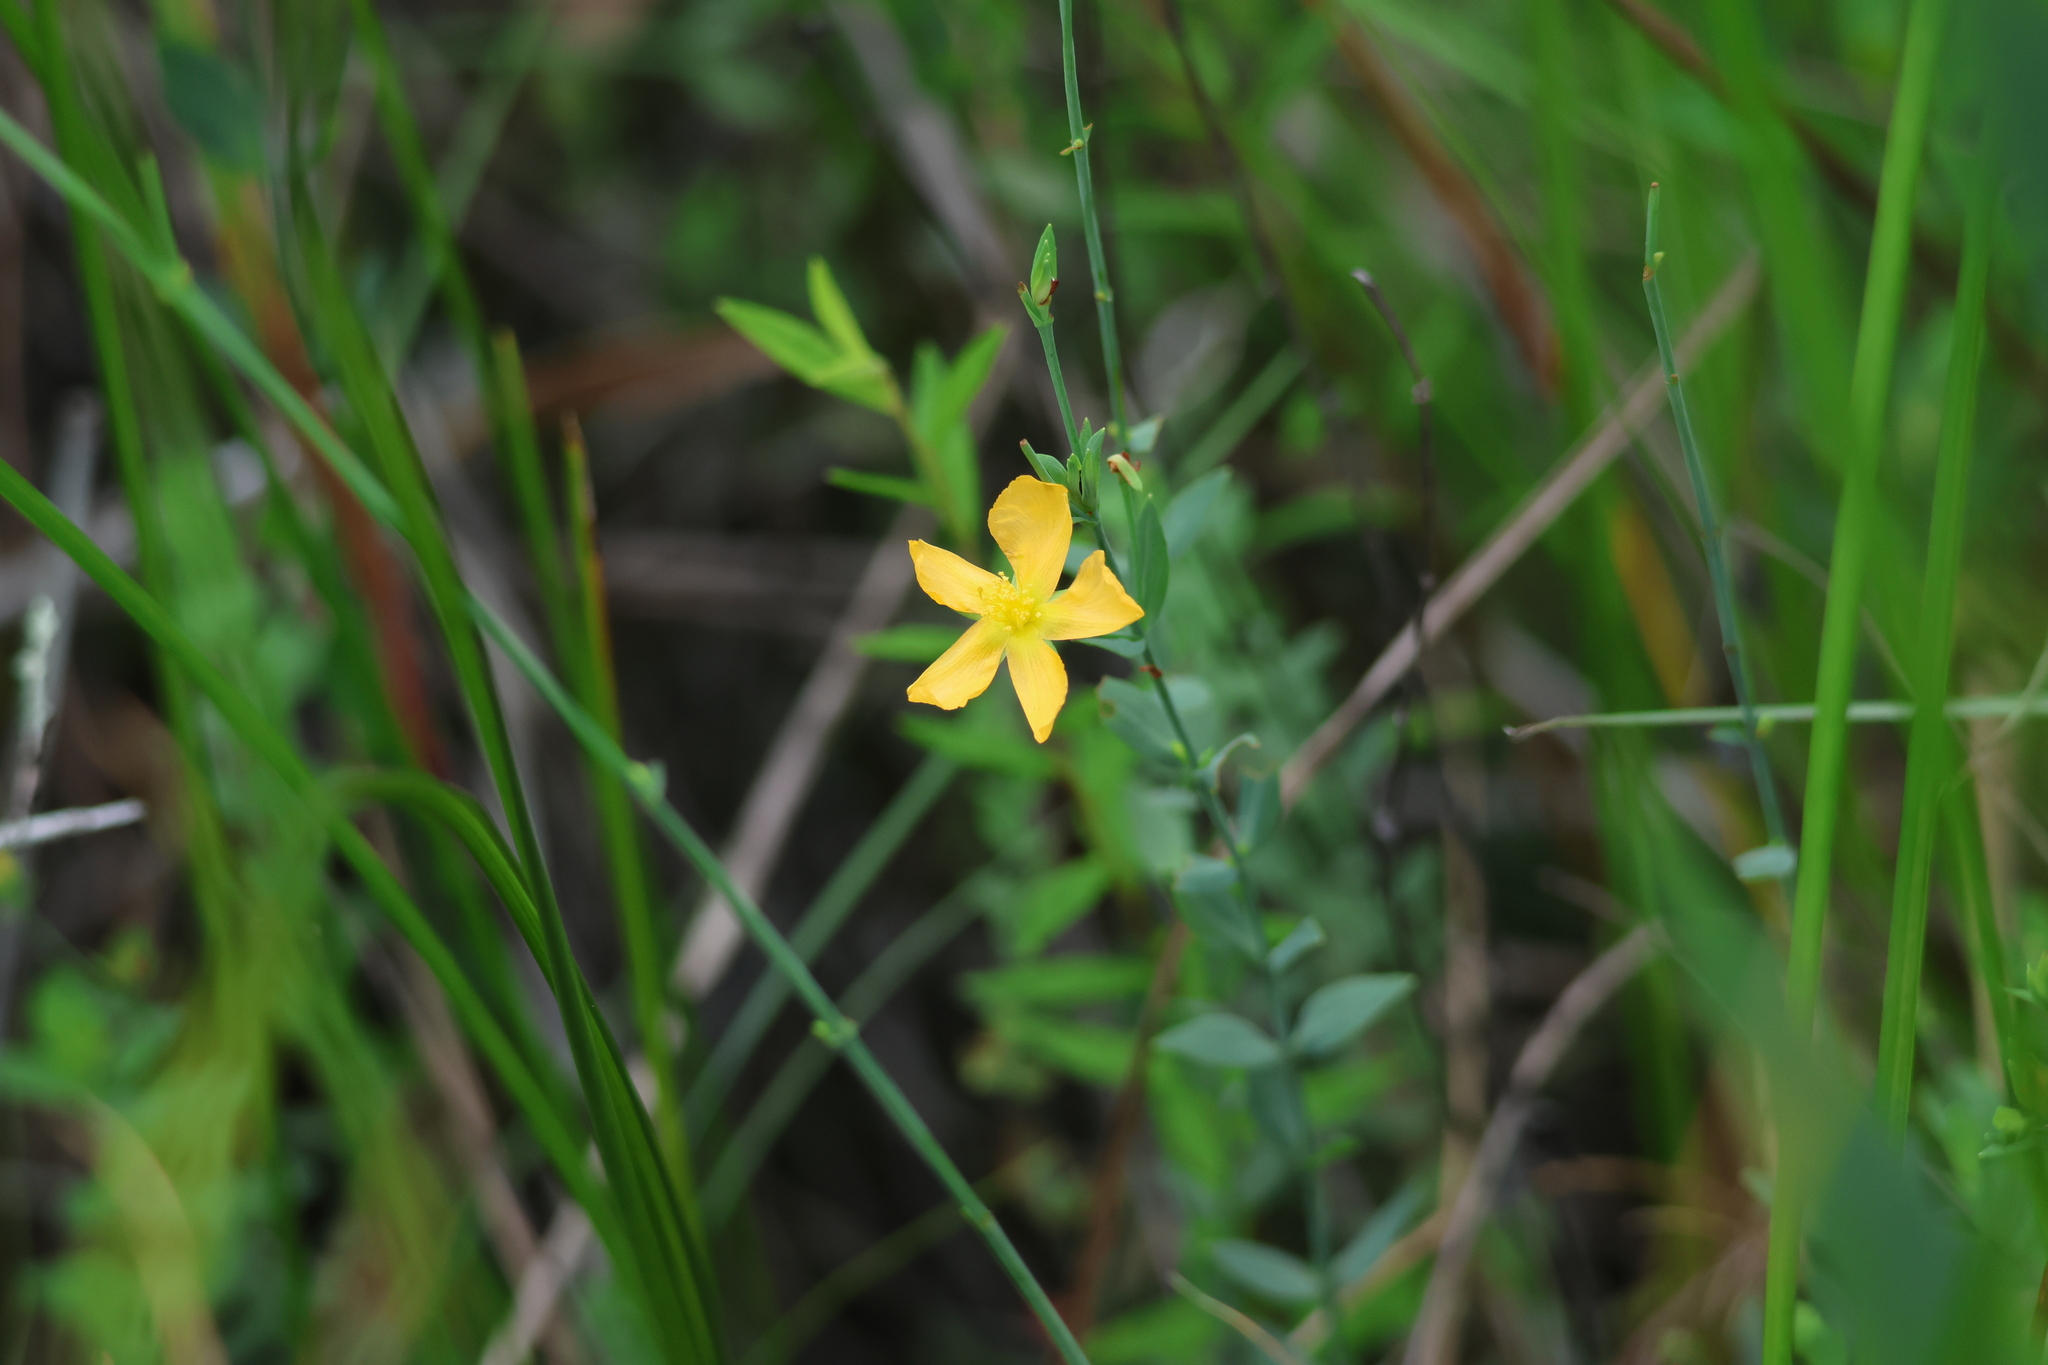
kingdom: Plantae
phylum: Tracheophyta
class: Magnoliopsida
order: Malpighiales
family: Hypericaceae
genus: Hypericum
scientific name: Hypericum denticulatum
